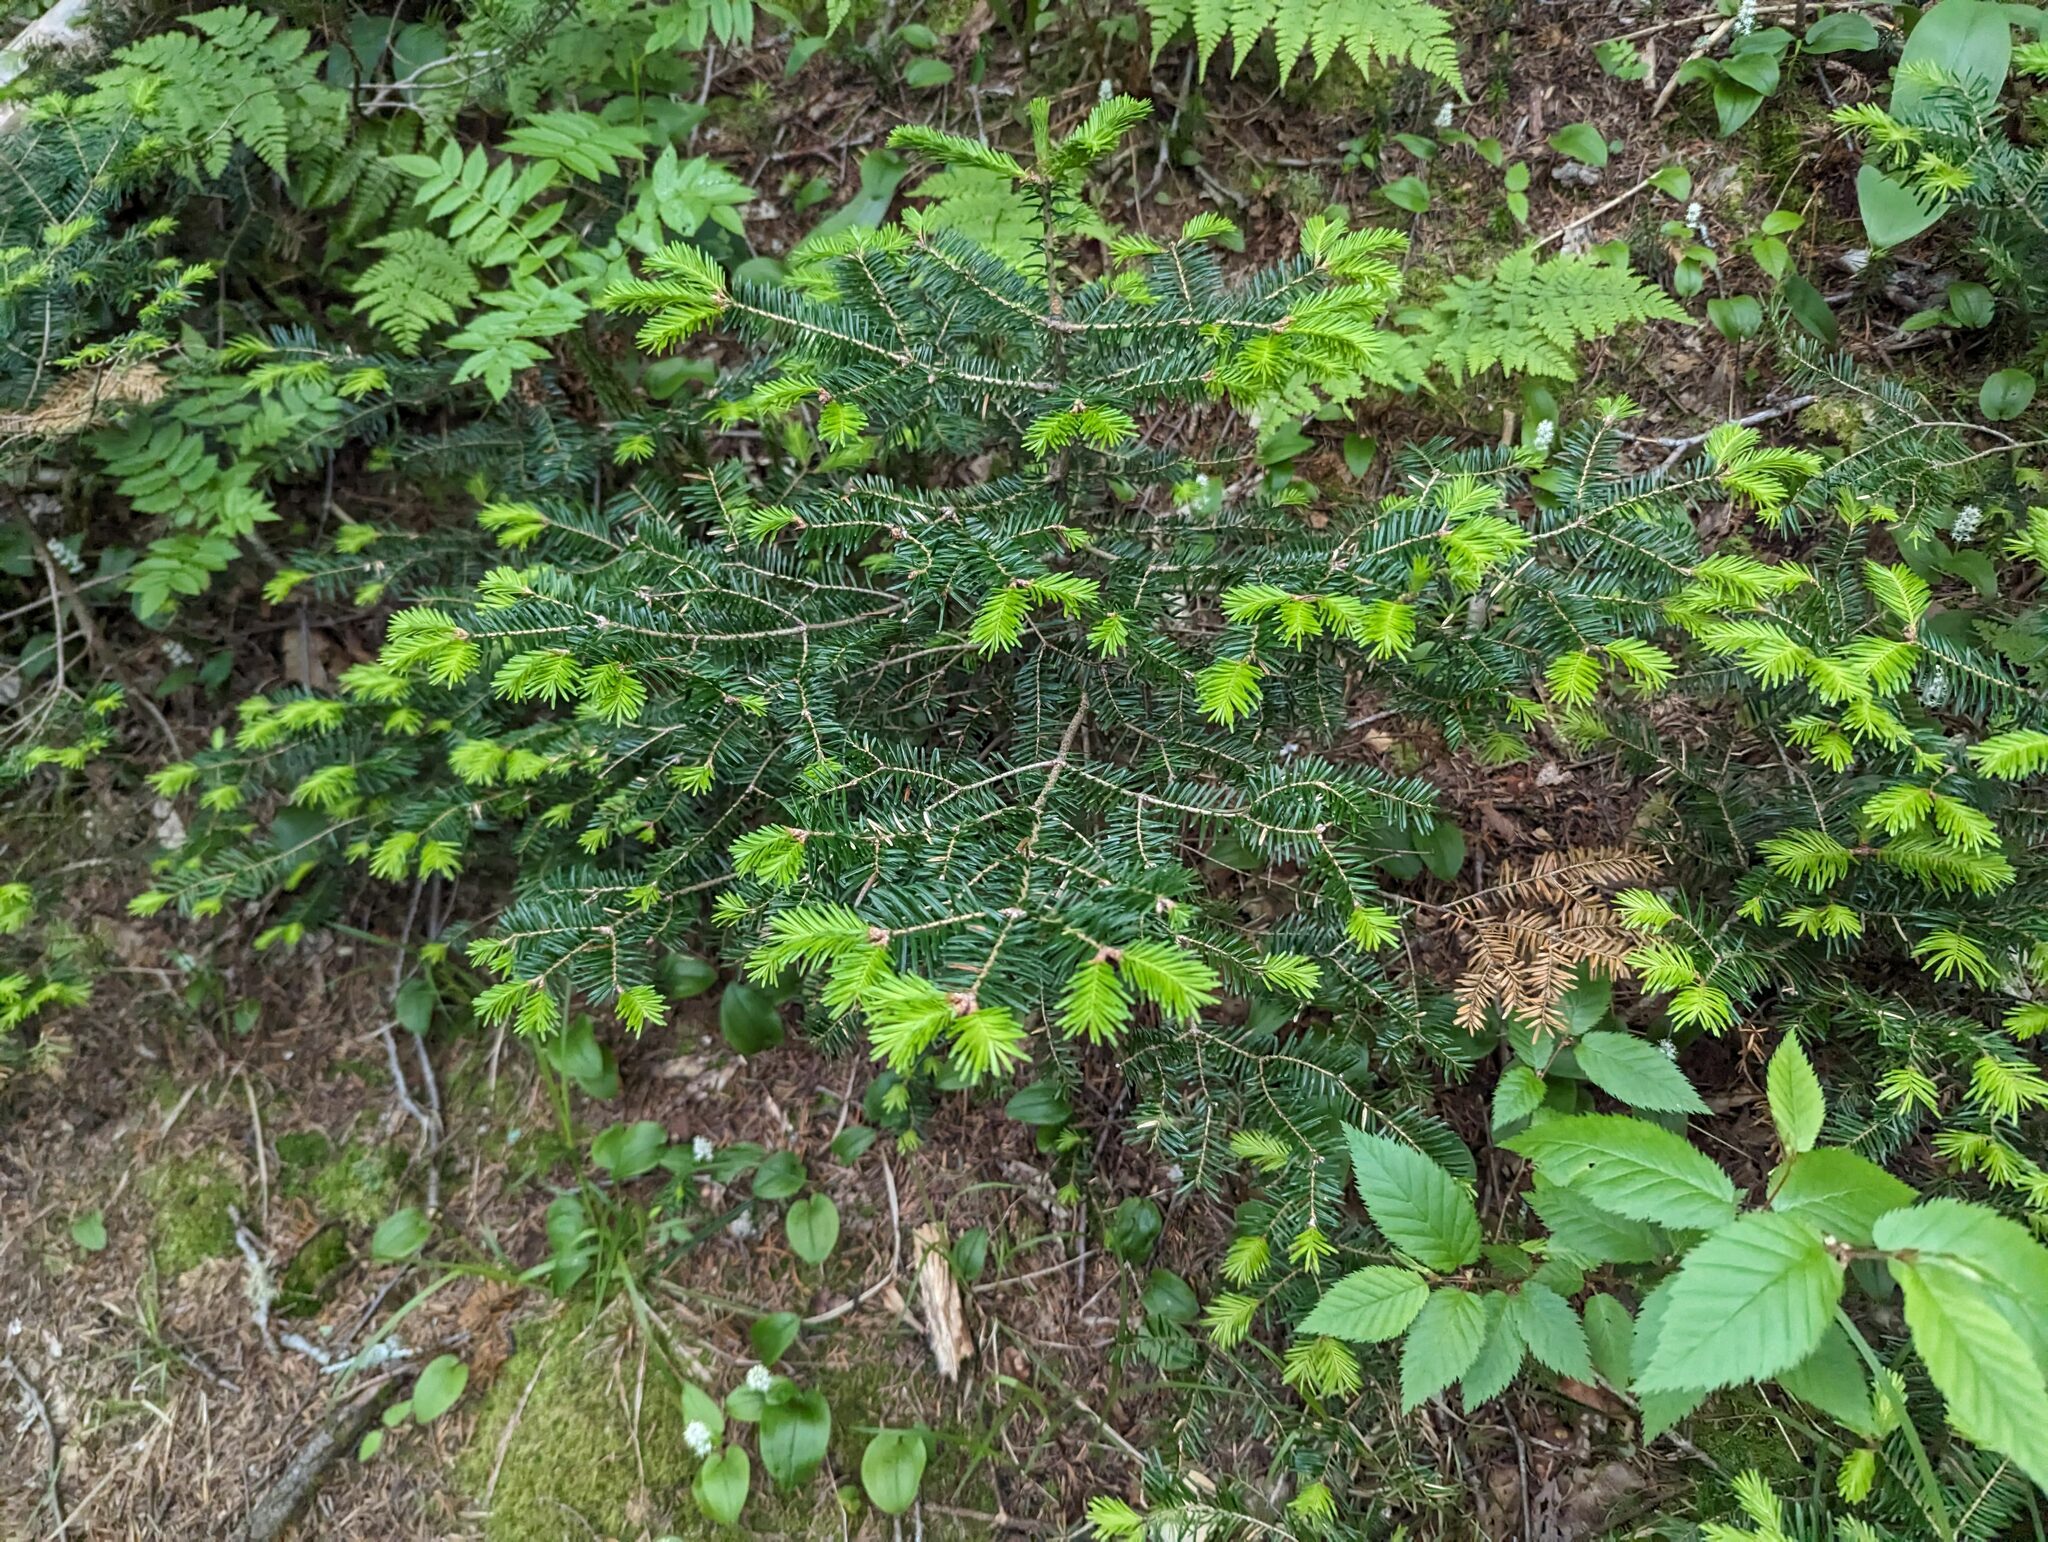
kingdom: Plantae
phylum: Tracheophyta
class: Pinopsida
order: Pinales
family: Pinaceae
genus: Abies
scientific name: Abies balsamea
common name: Balsam fir
